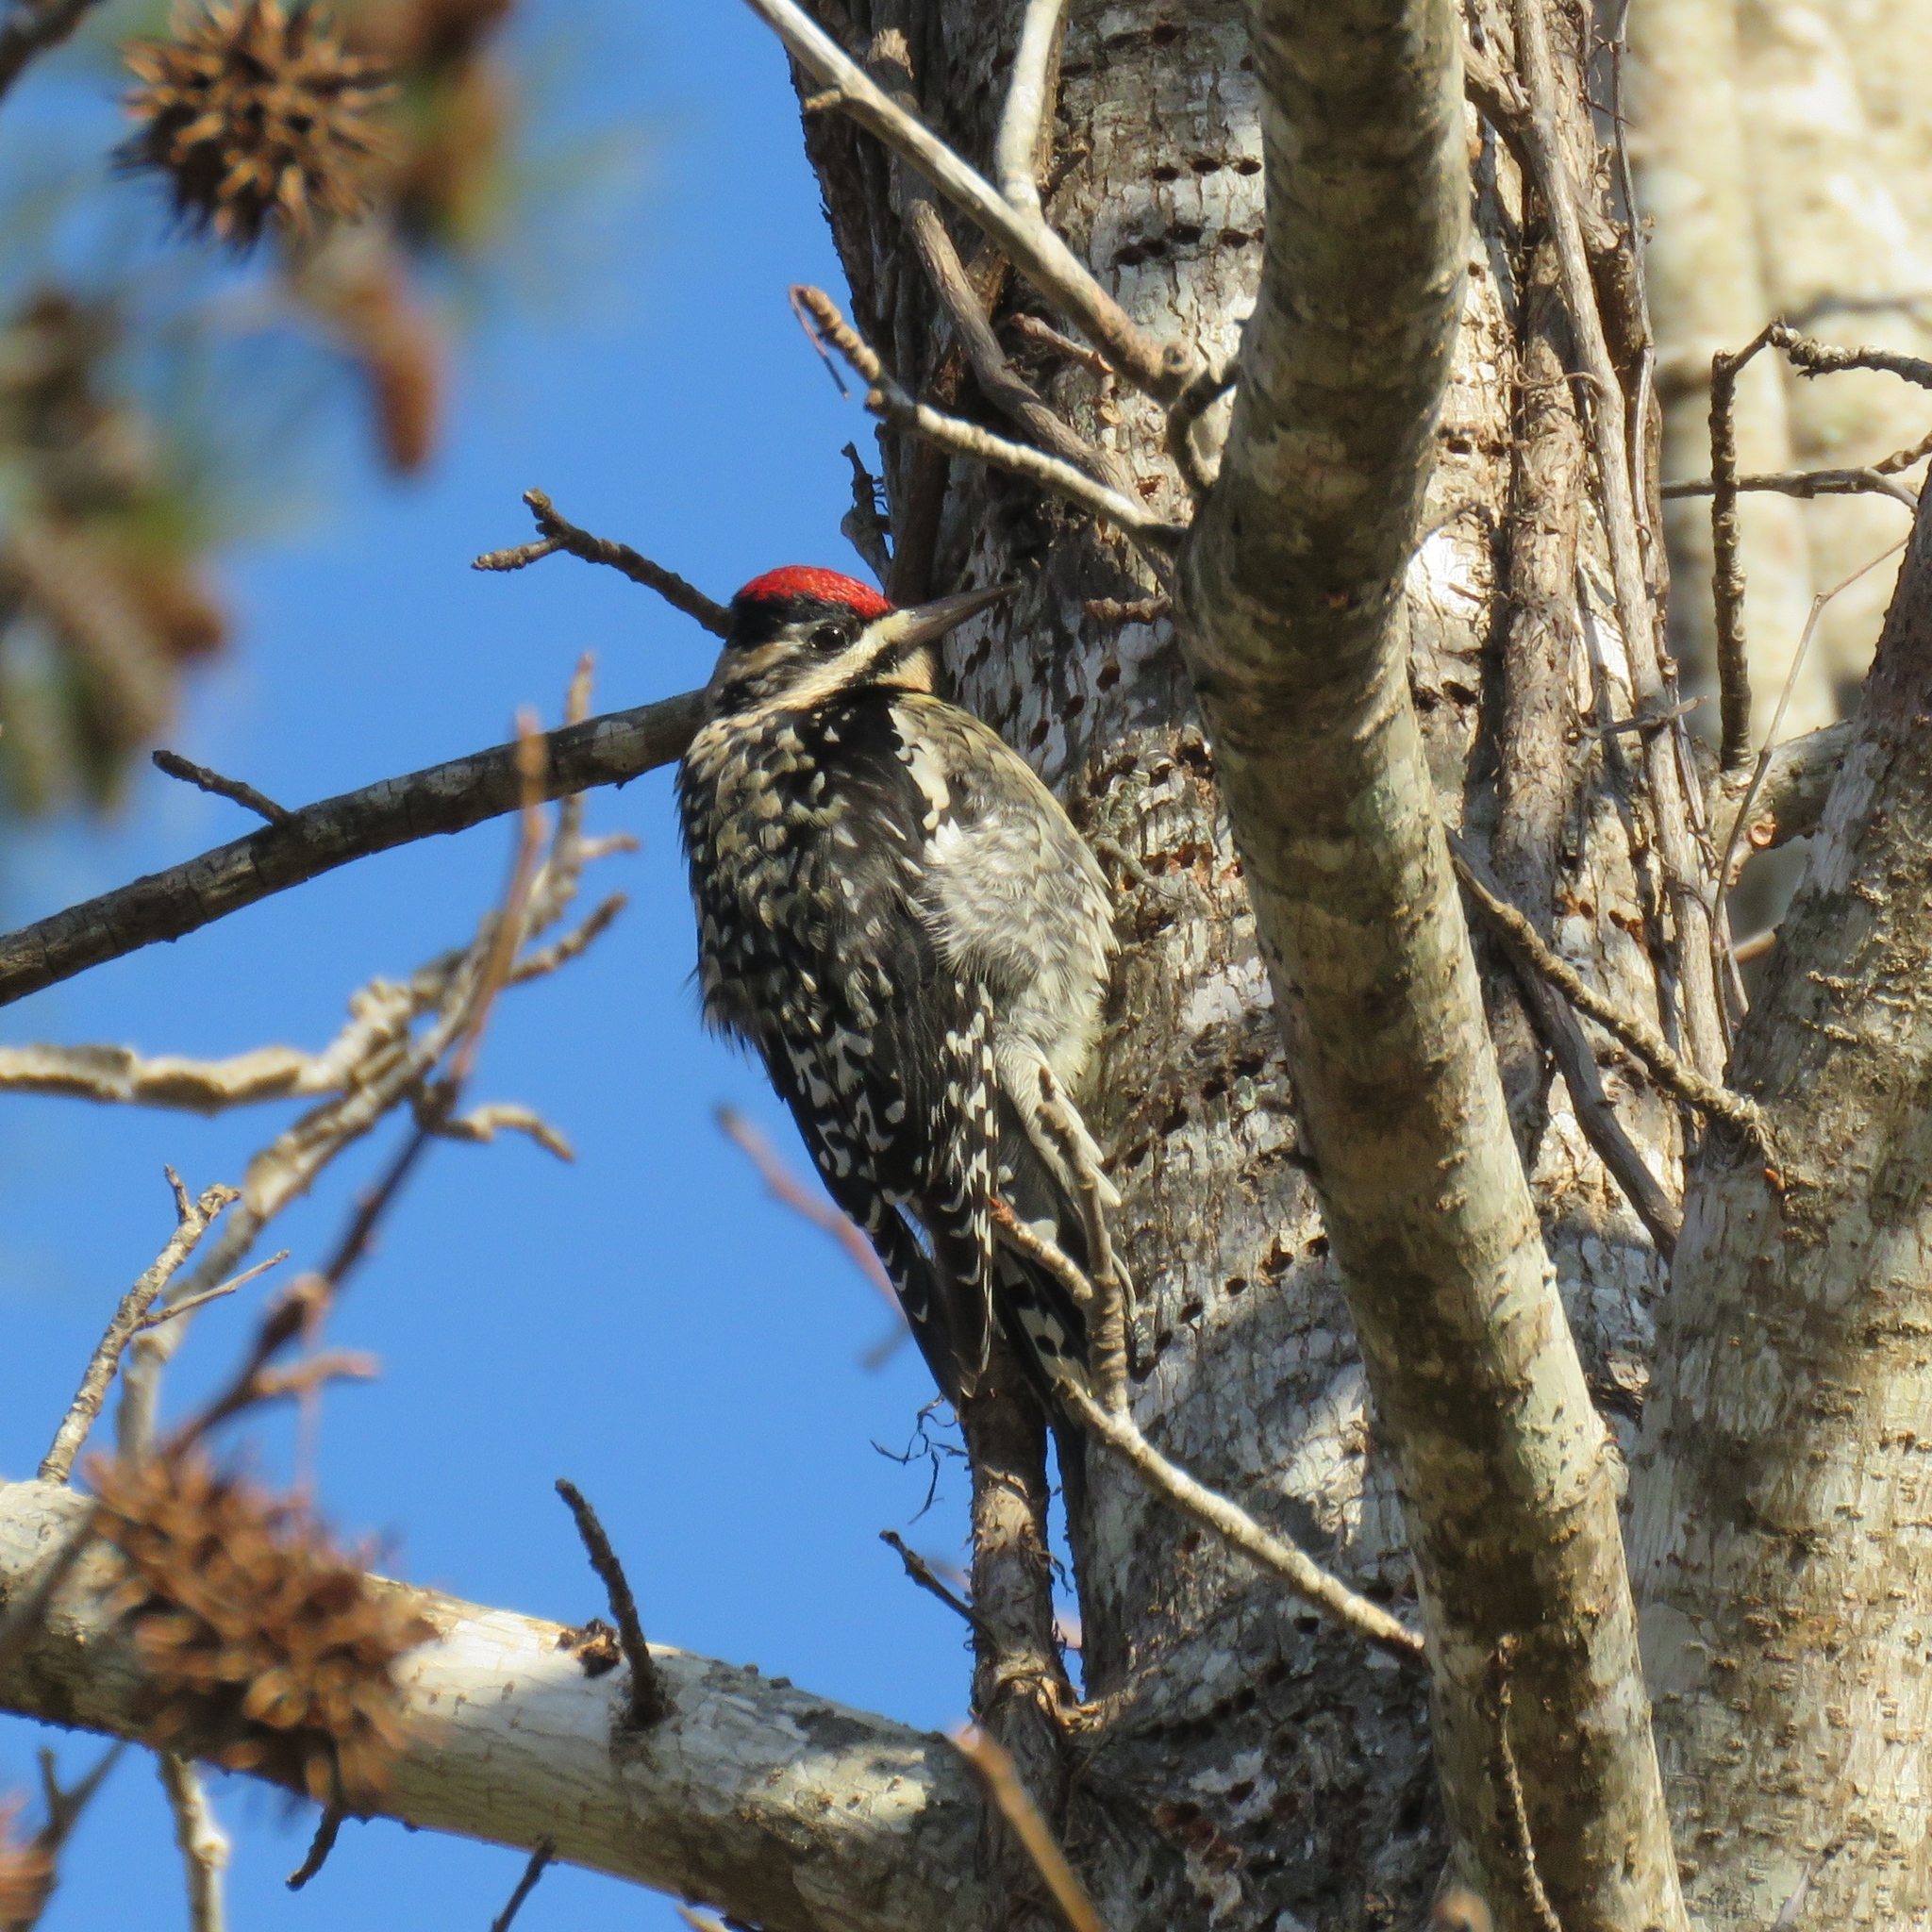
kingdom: Animalia
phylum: Chordata
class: Aves
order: Piciformes
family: Picidae
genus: Sphyrapicus
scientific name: Sphyrapicus varius
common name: Yellow-bellied sapsucker
